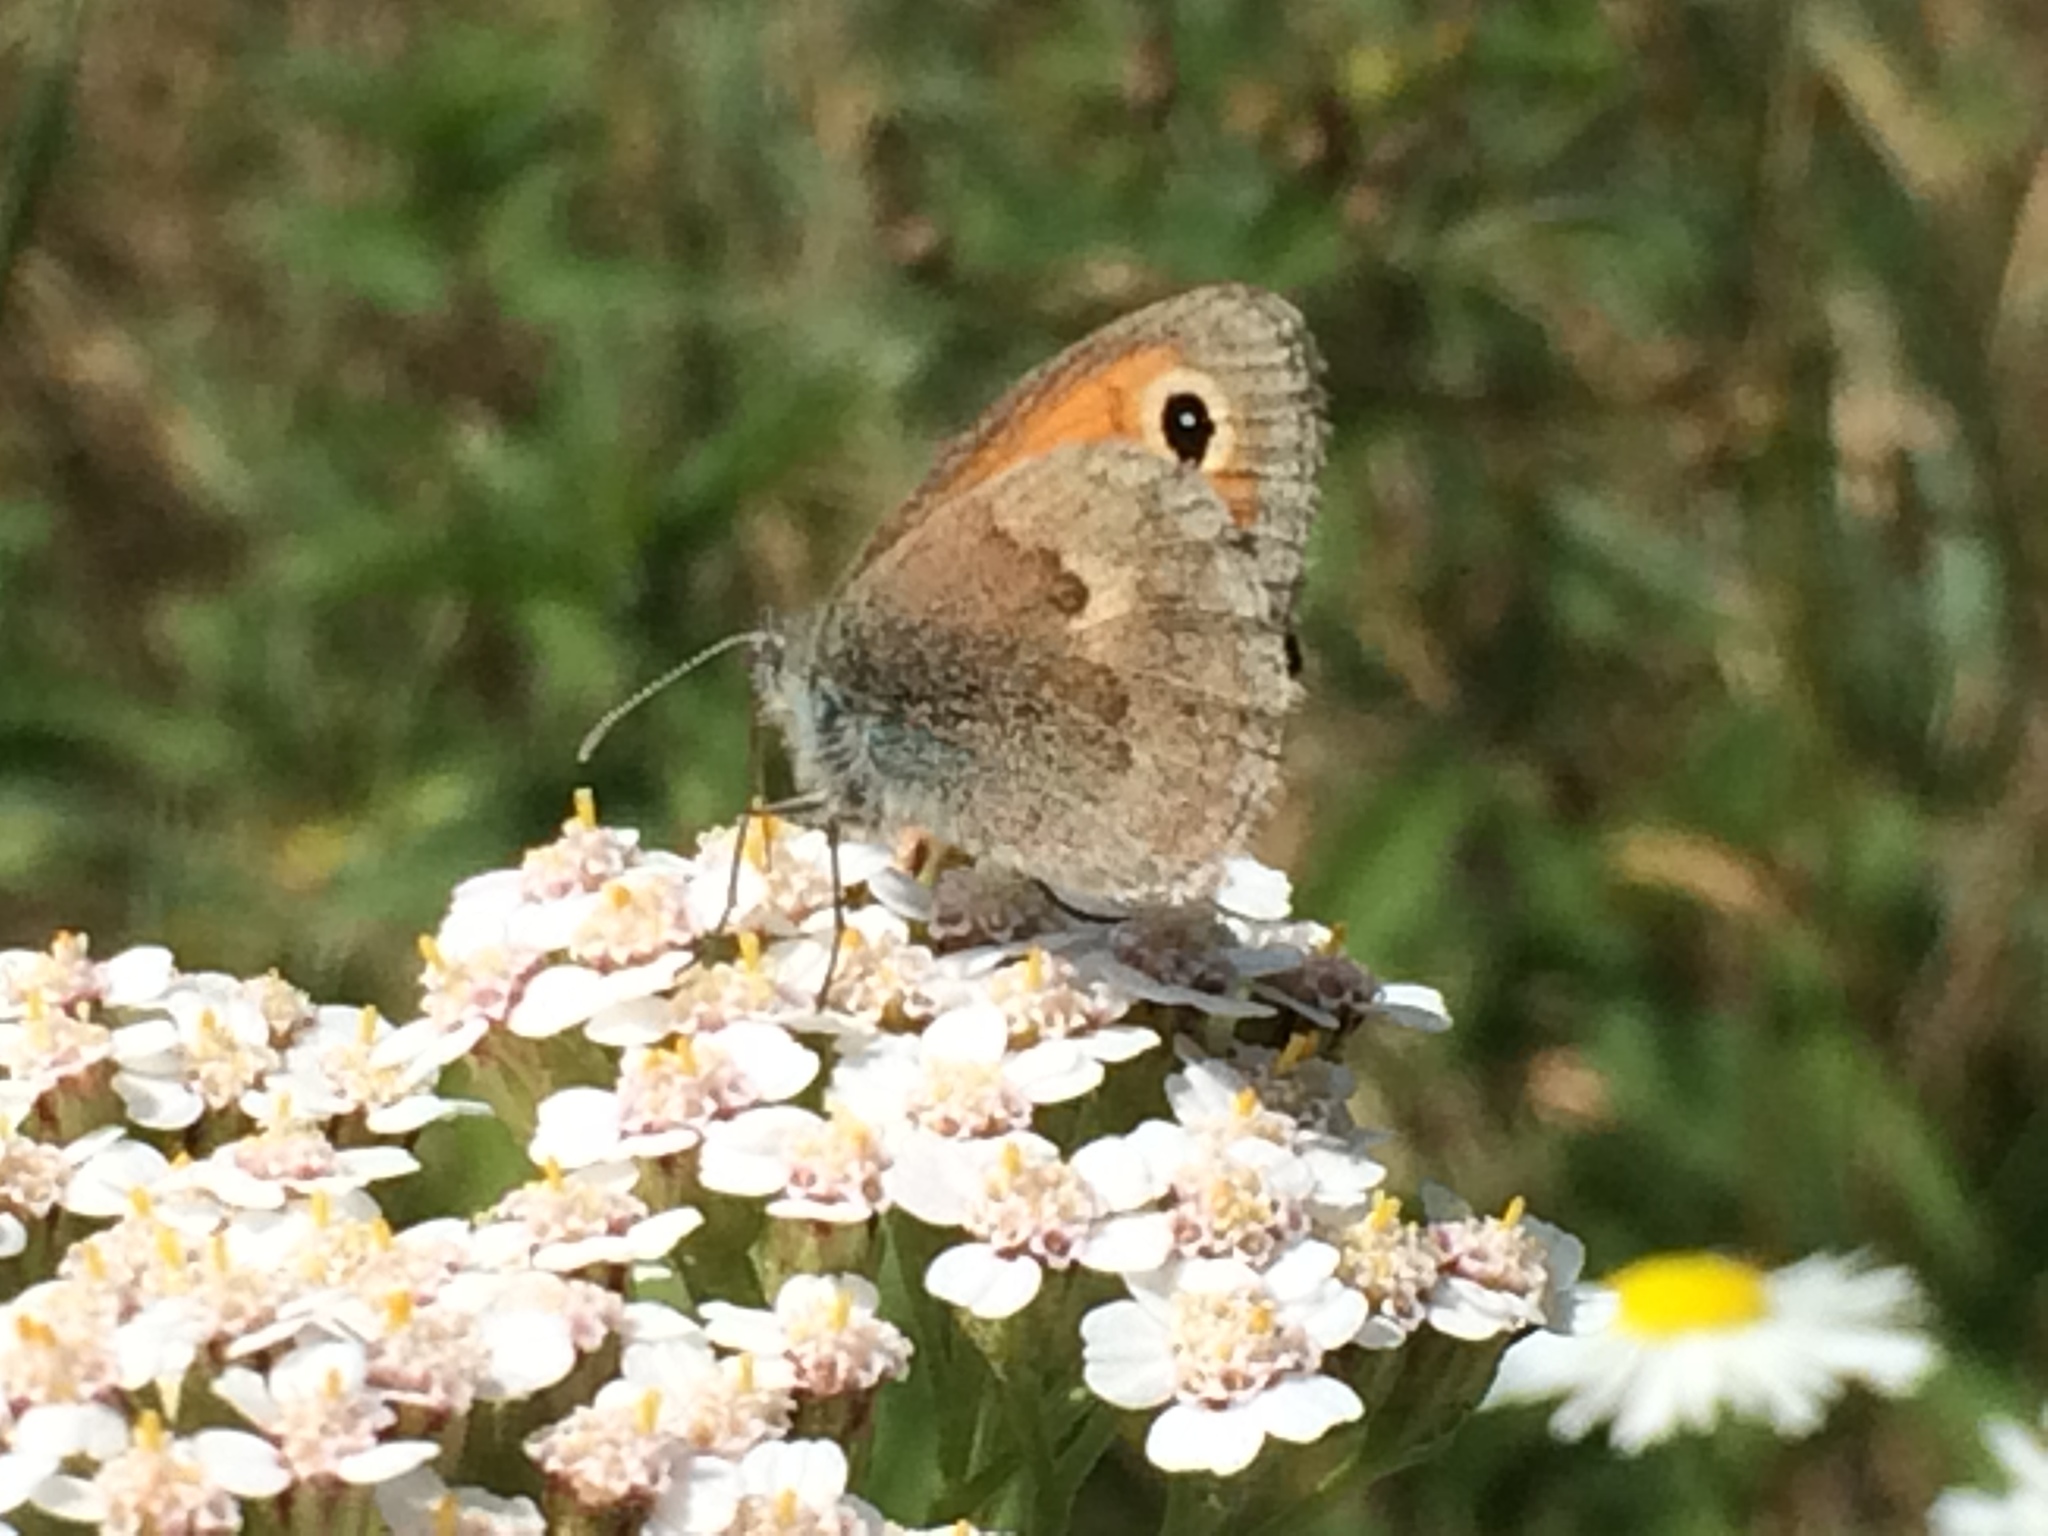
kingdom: Animalia
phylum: Arthropoda
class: Insecta
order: Lepidoptera
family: Nymphalidae
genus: Coenonympha
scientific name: Coenonympha pamphilus
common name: Small heath
